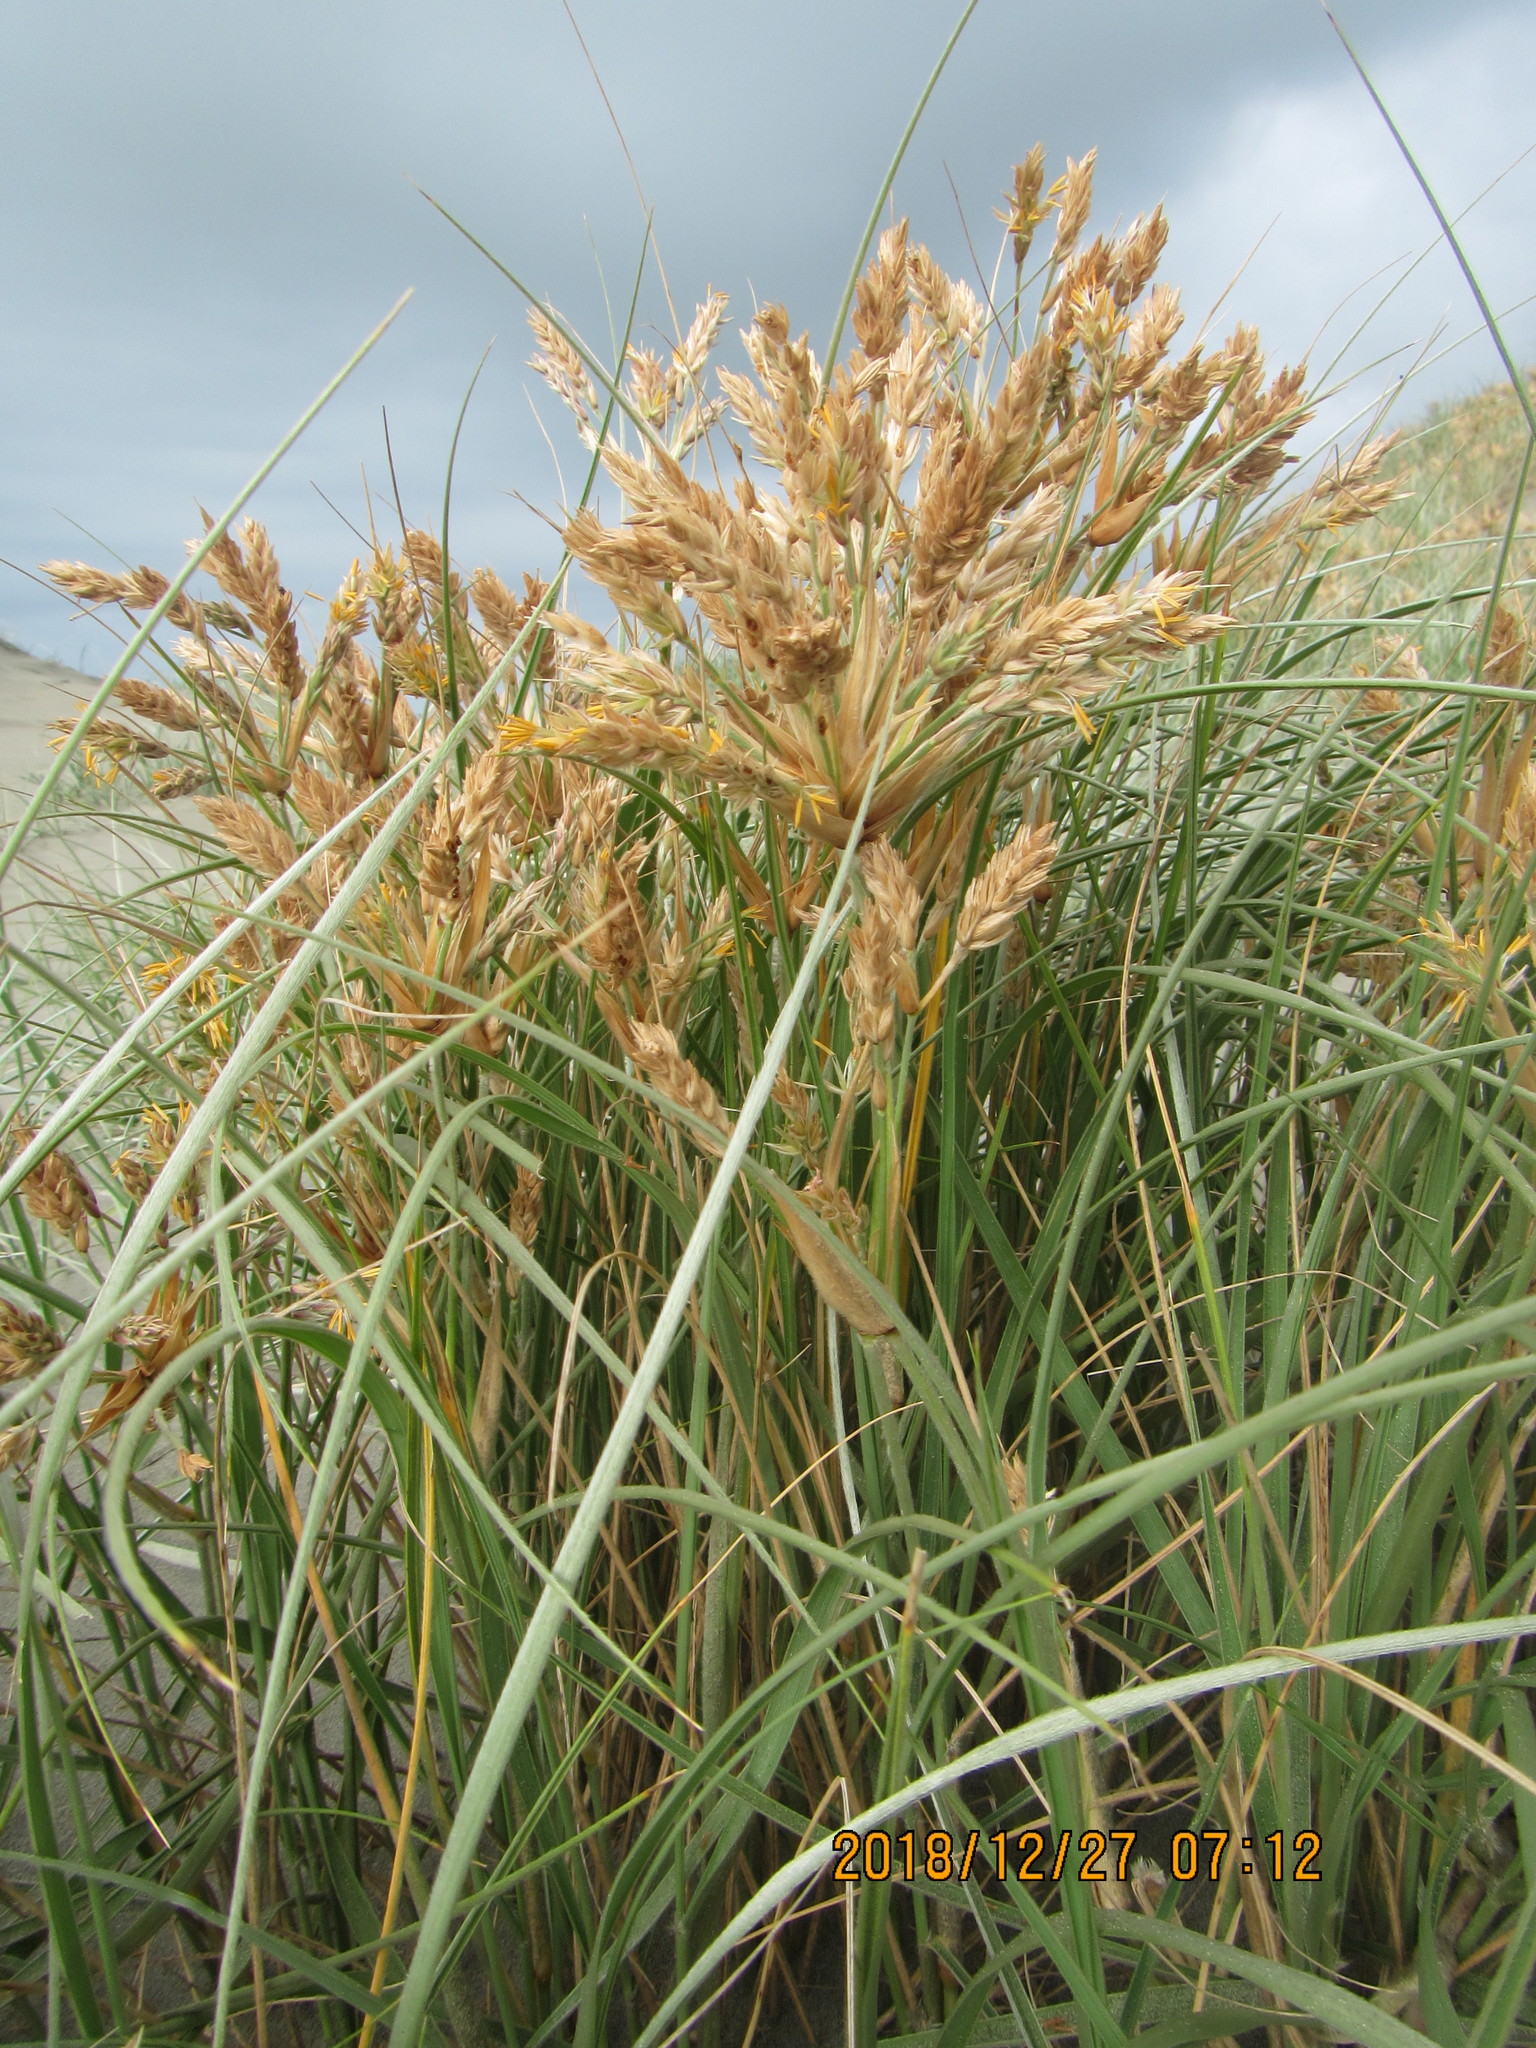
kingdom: Plantae
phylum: Tracheophyta
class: Liliopsida
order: Poales
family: Poaceae
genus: Spinifex
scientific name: Spinifex sericeus
